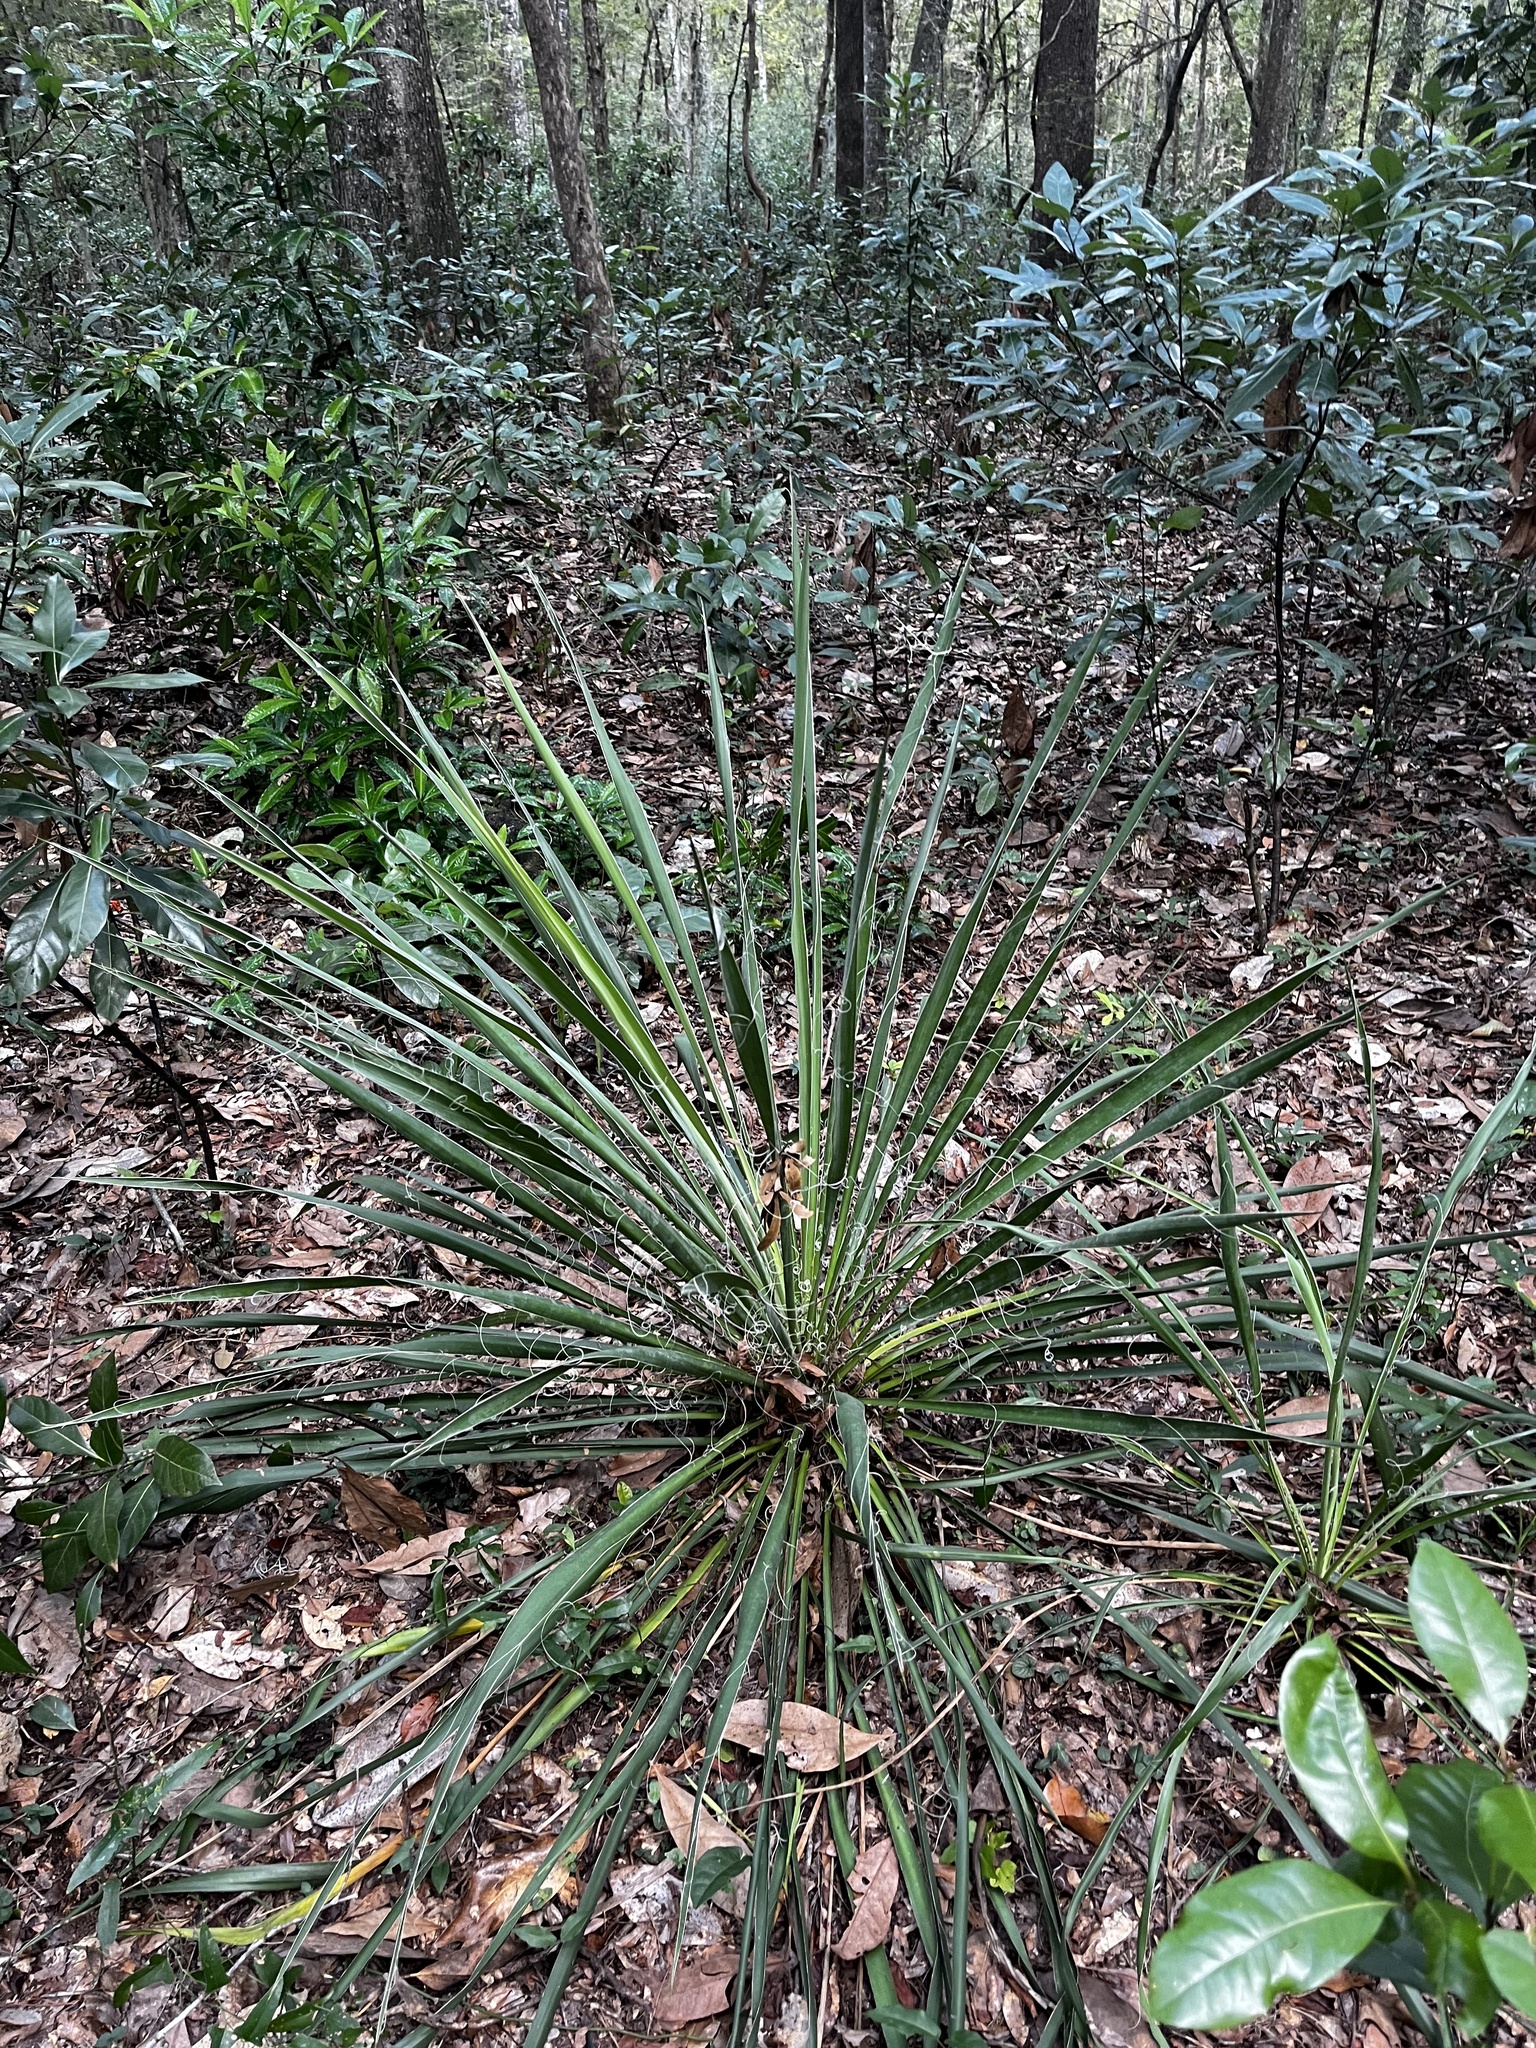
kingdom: Plantae
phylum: Tracheophyta
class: Liliopsida
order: Asparagales
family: Asparagaceae
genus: Yucca
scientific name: Yucca filamentosa
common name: Adam's-needle
